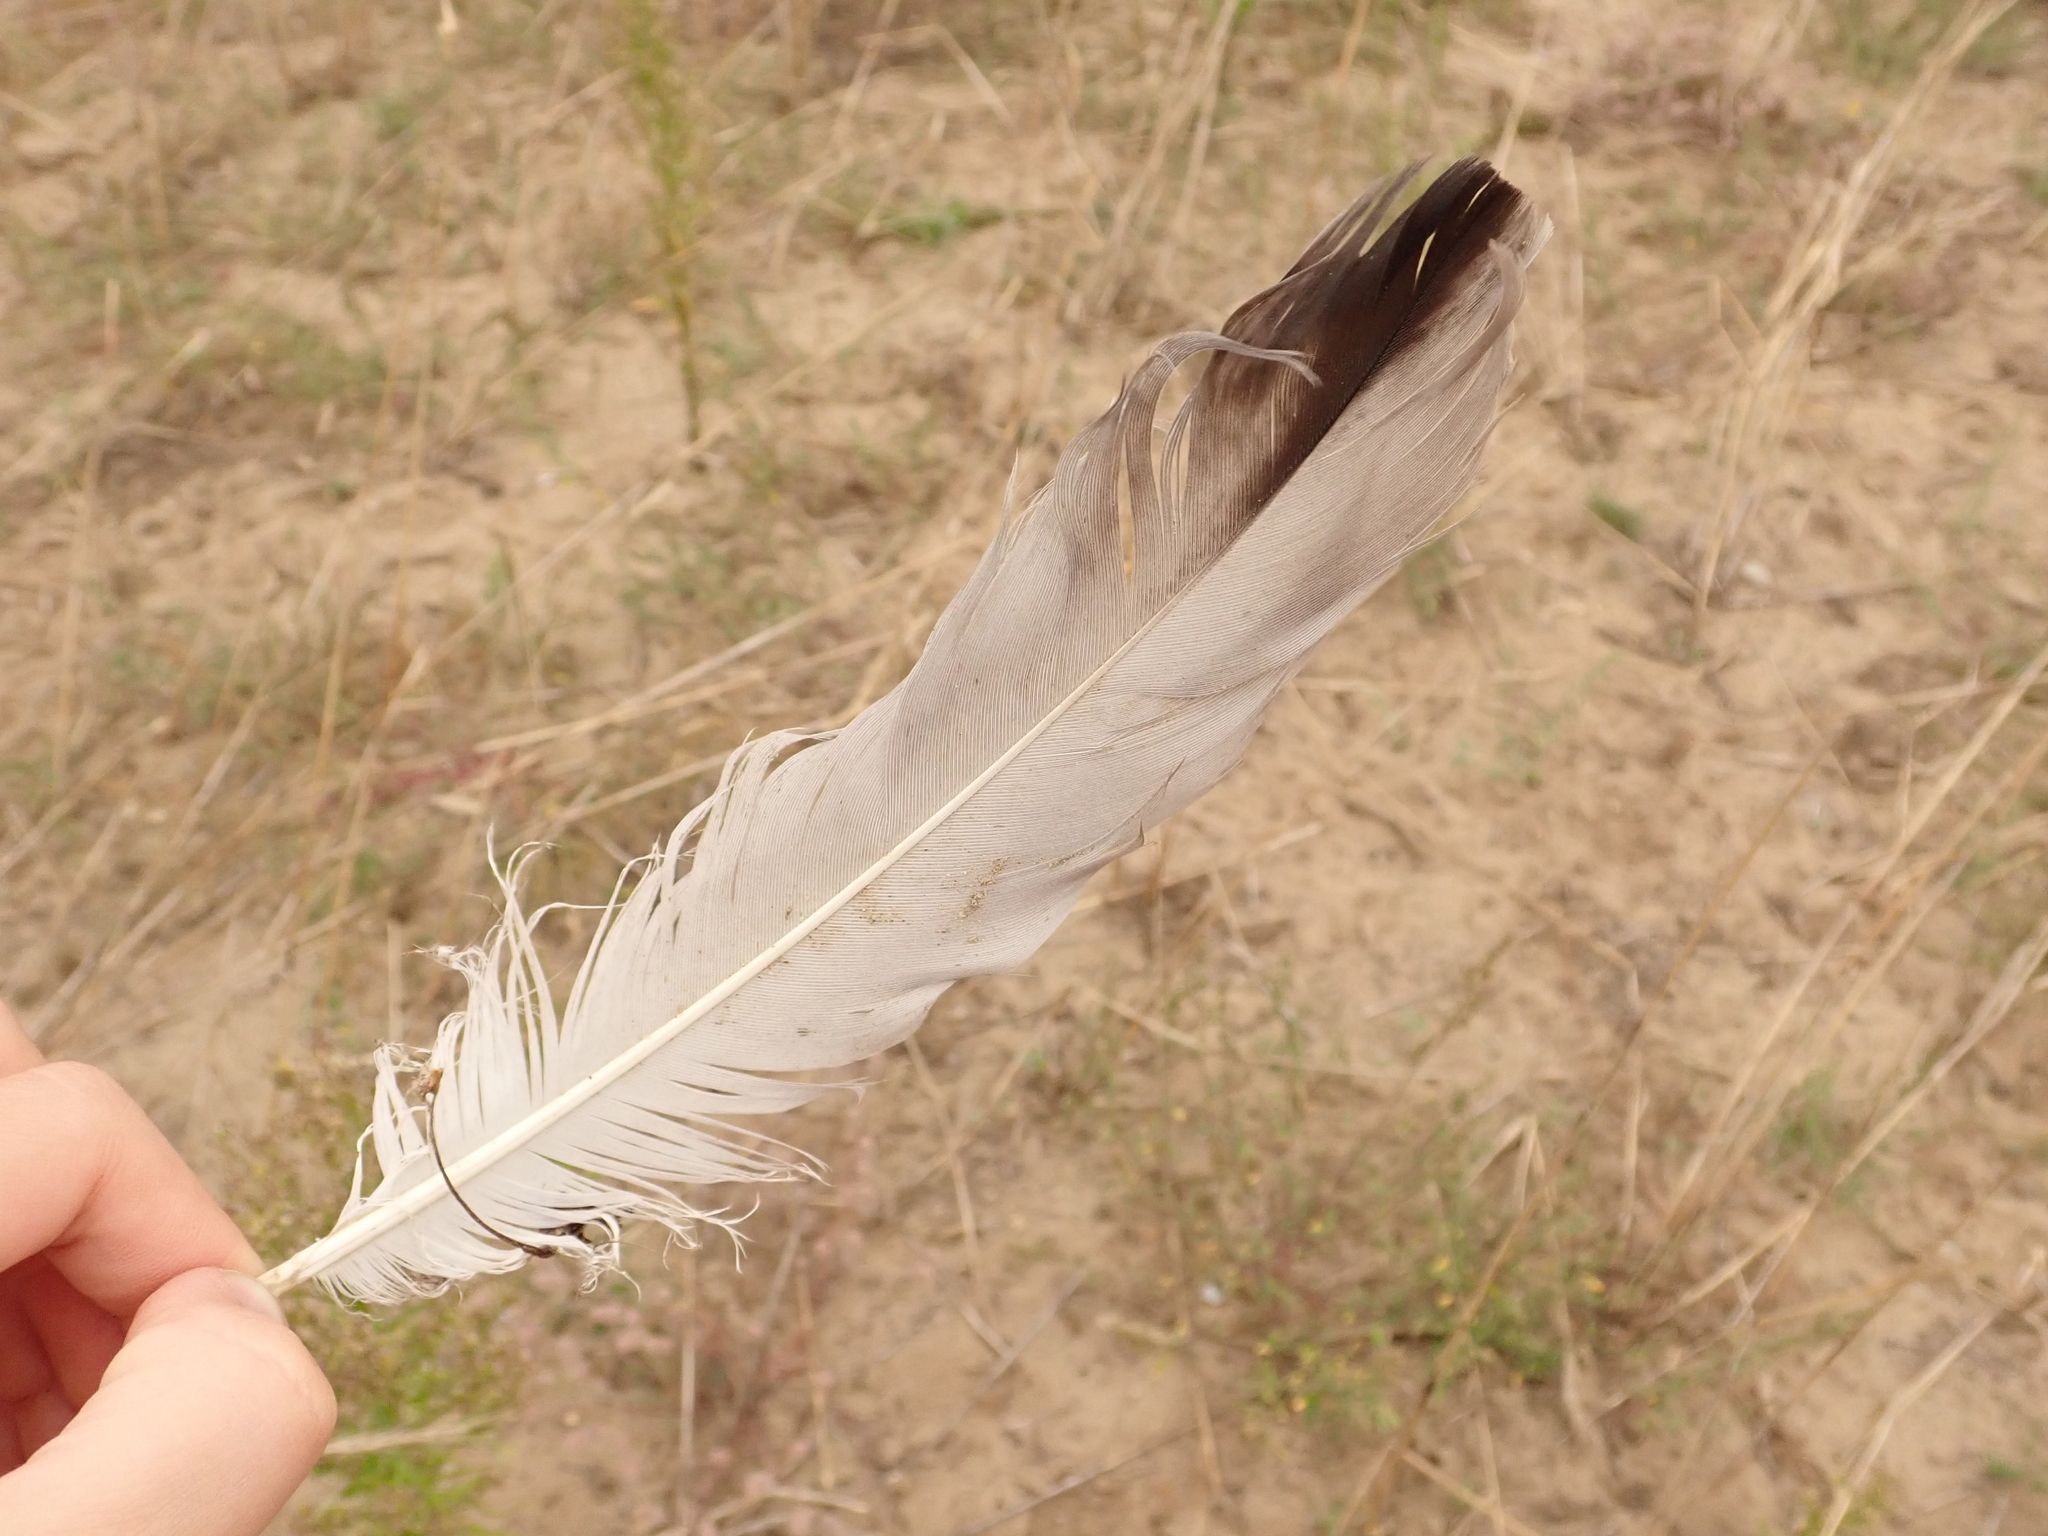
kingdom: Animalia
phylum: Chordata
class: Aves
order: Gruiformes
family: Gruidae
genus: Grus
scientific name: Grus grus
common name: Common crane
